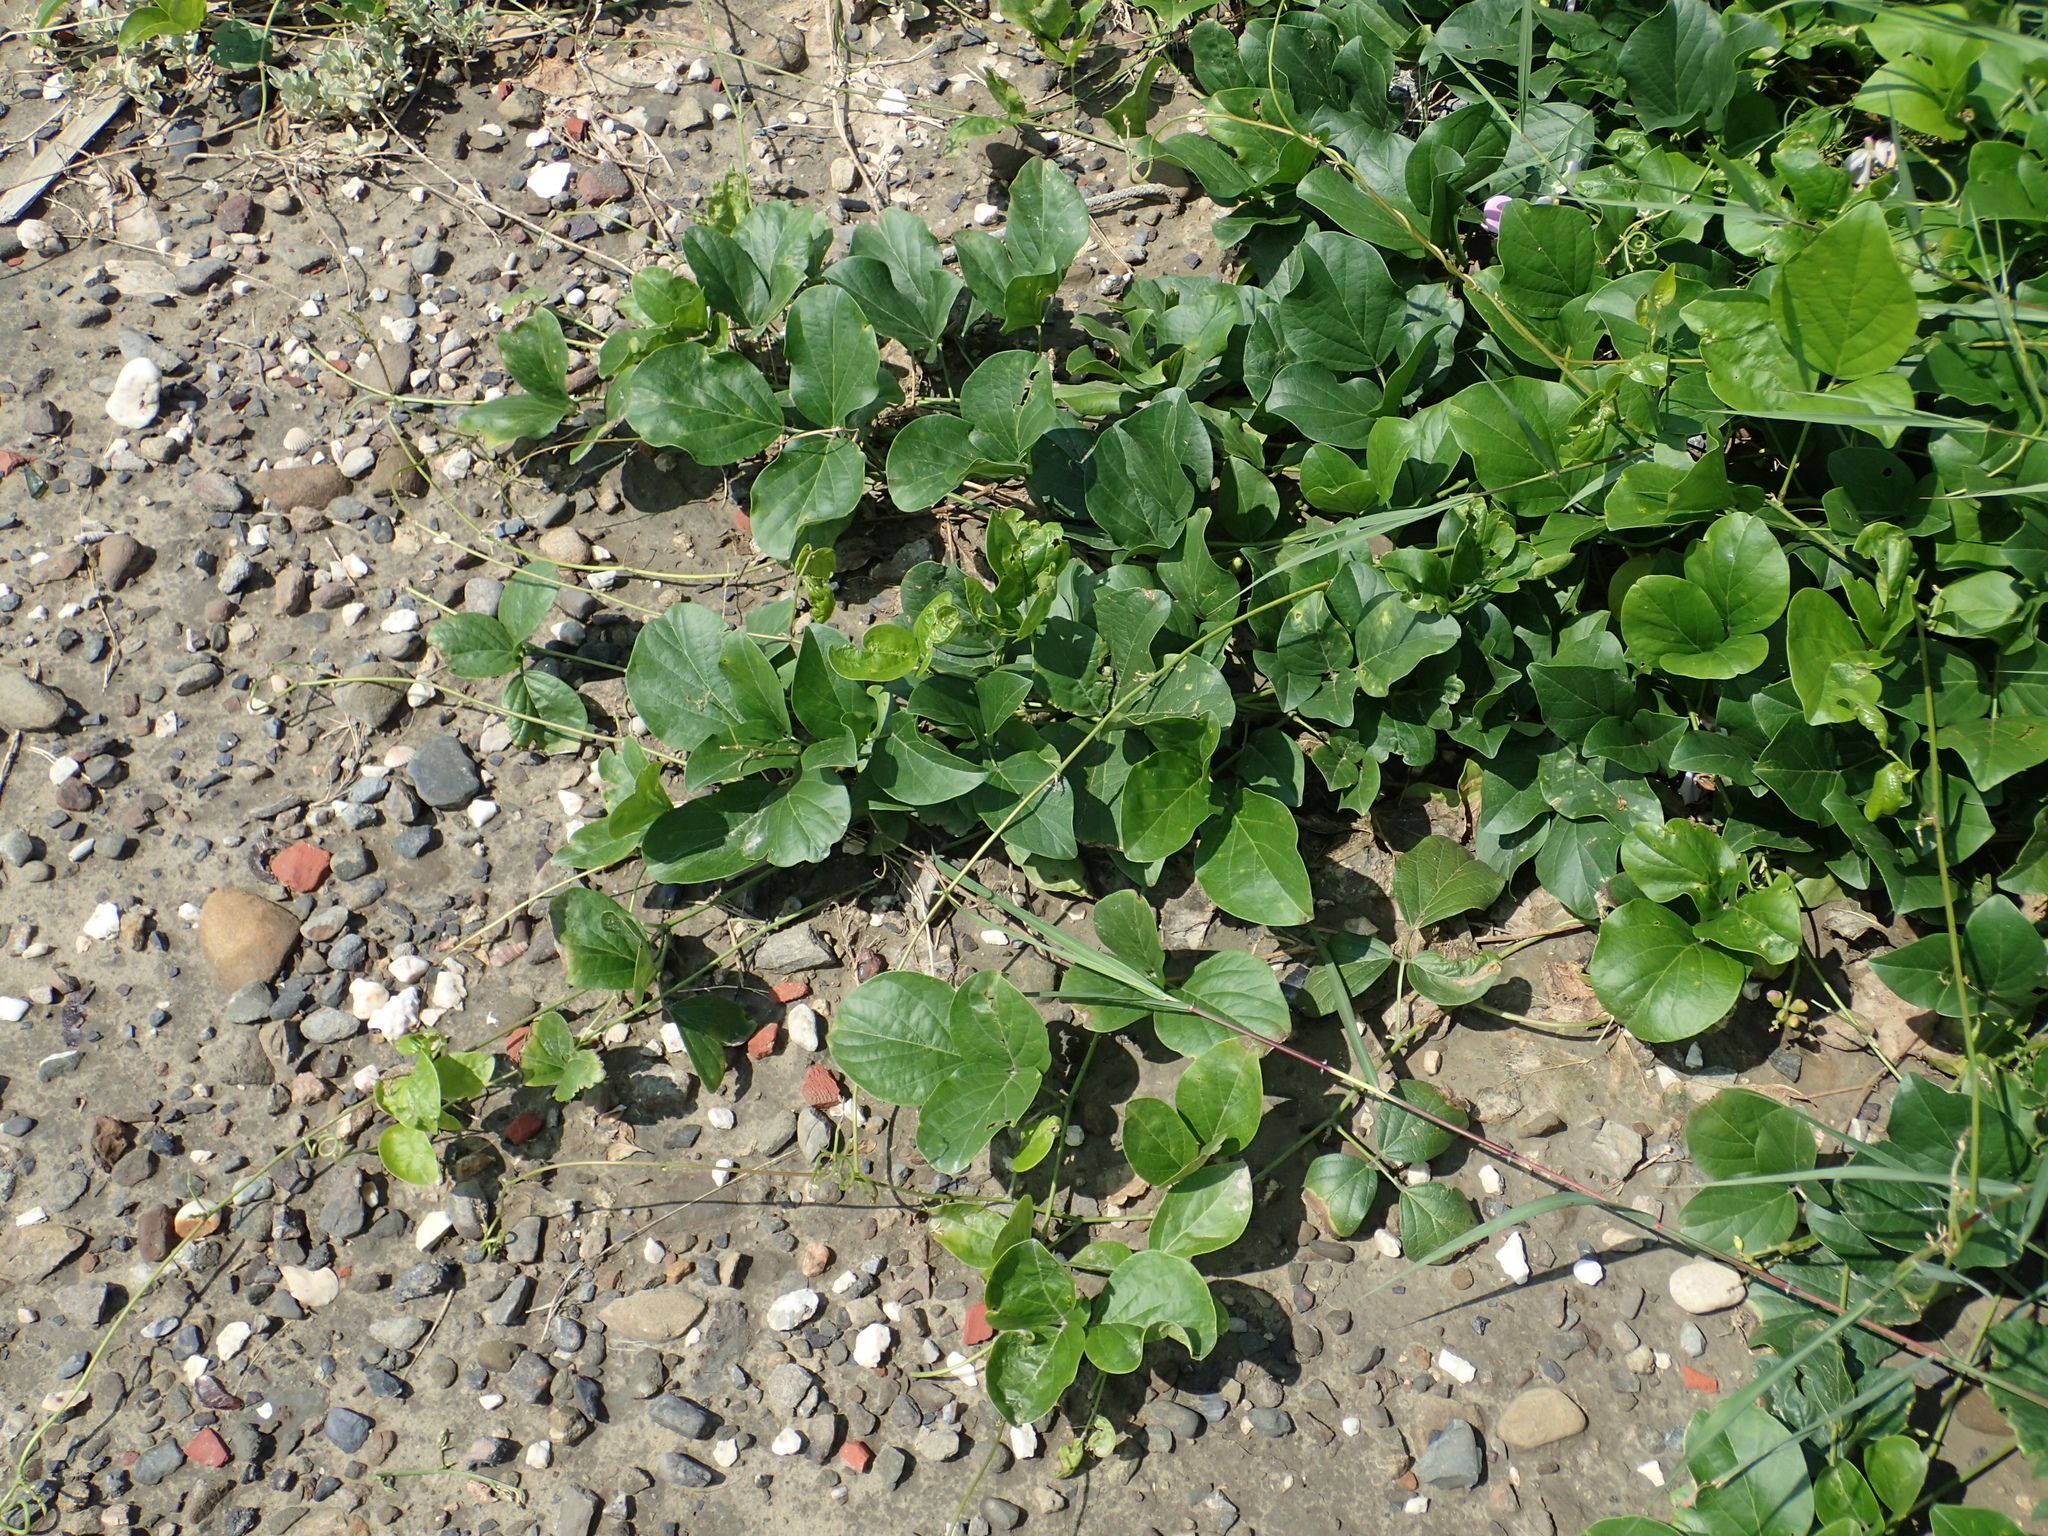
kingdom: Plantae
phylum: Tracheophyta
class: Magnoliopsida
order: Fabales
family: Fabaceae
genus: Canavalia
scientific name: Canavalia lineata
